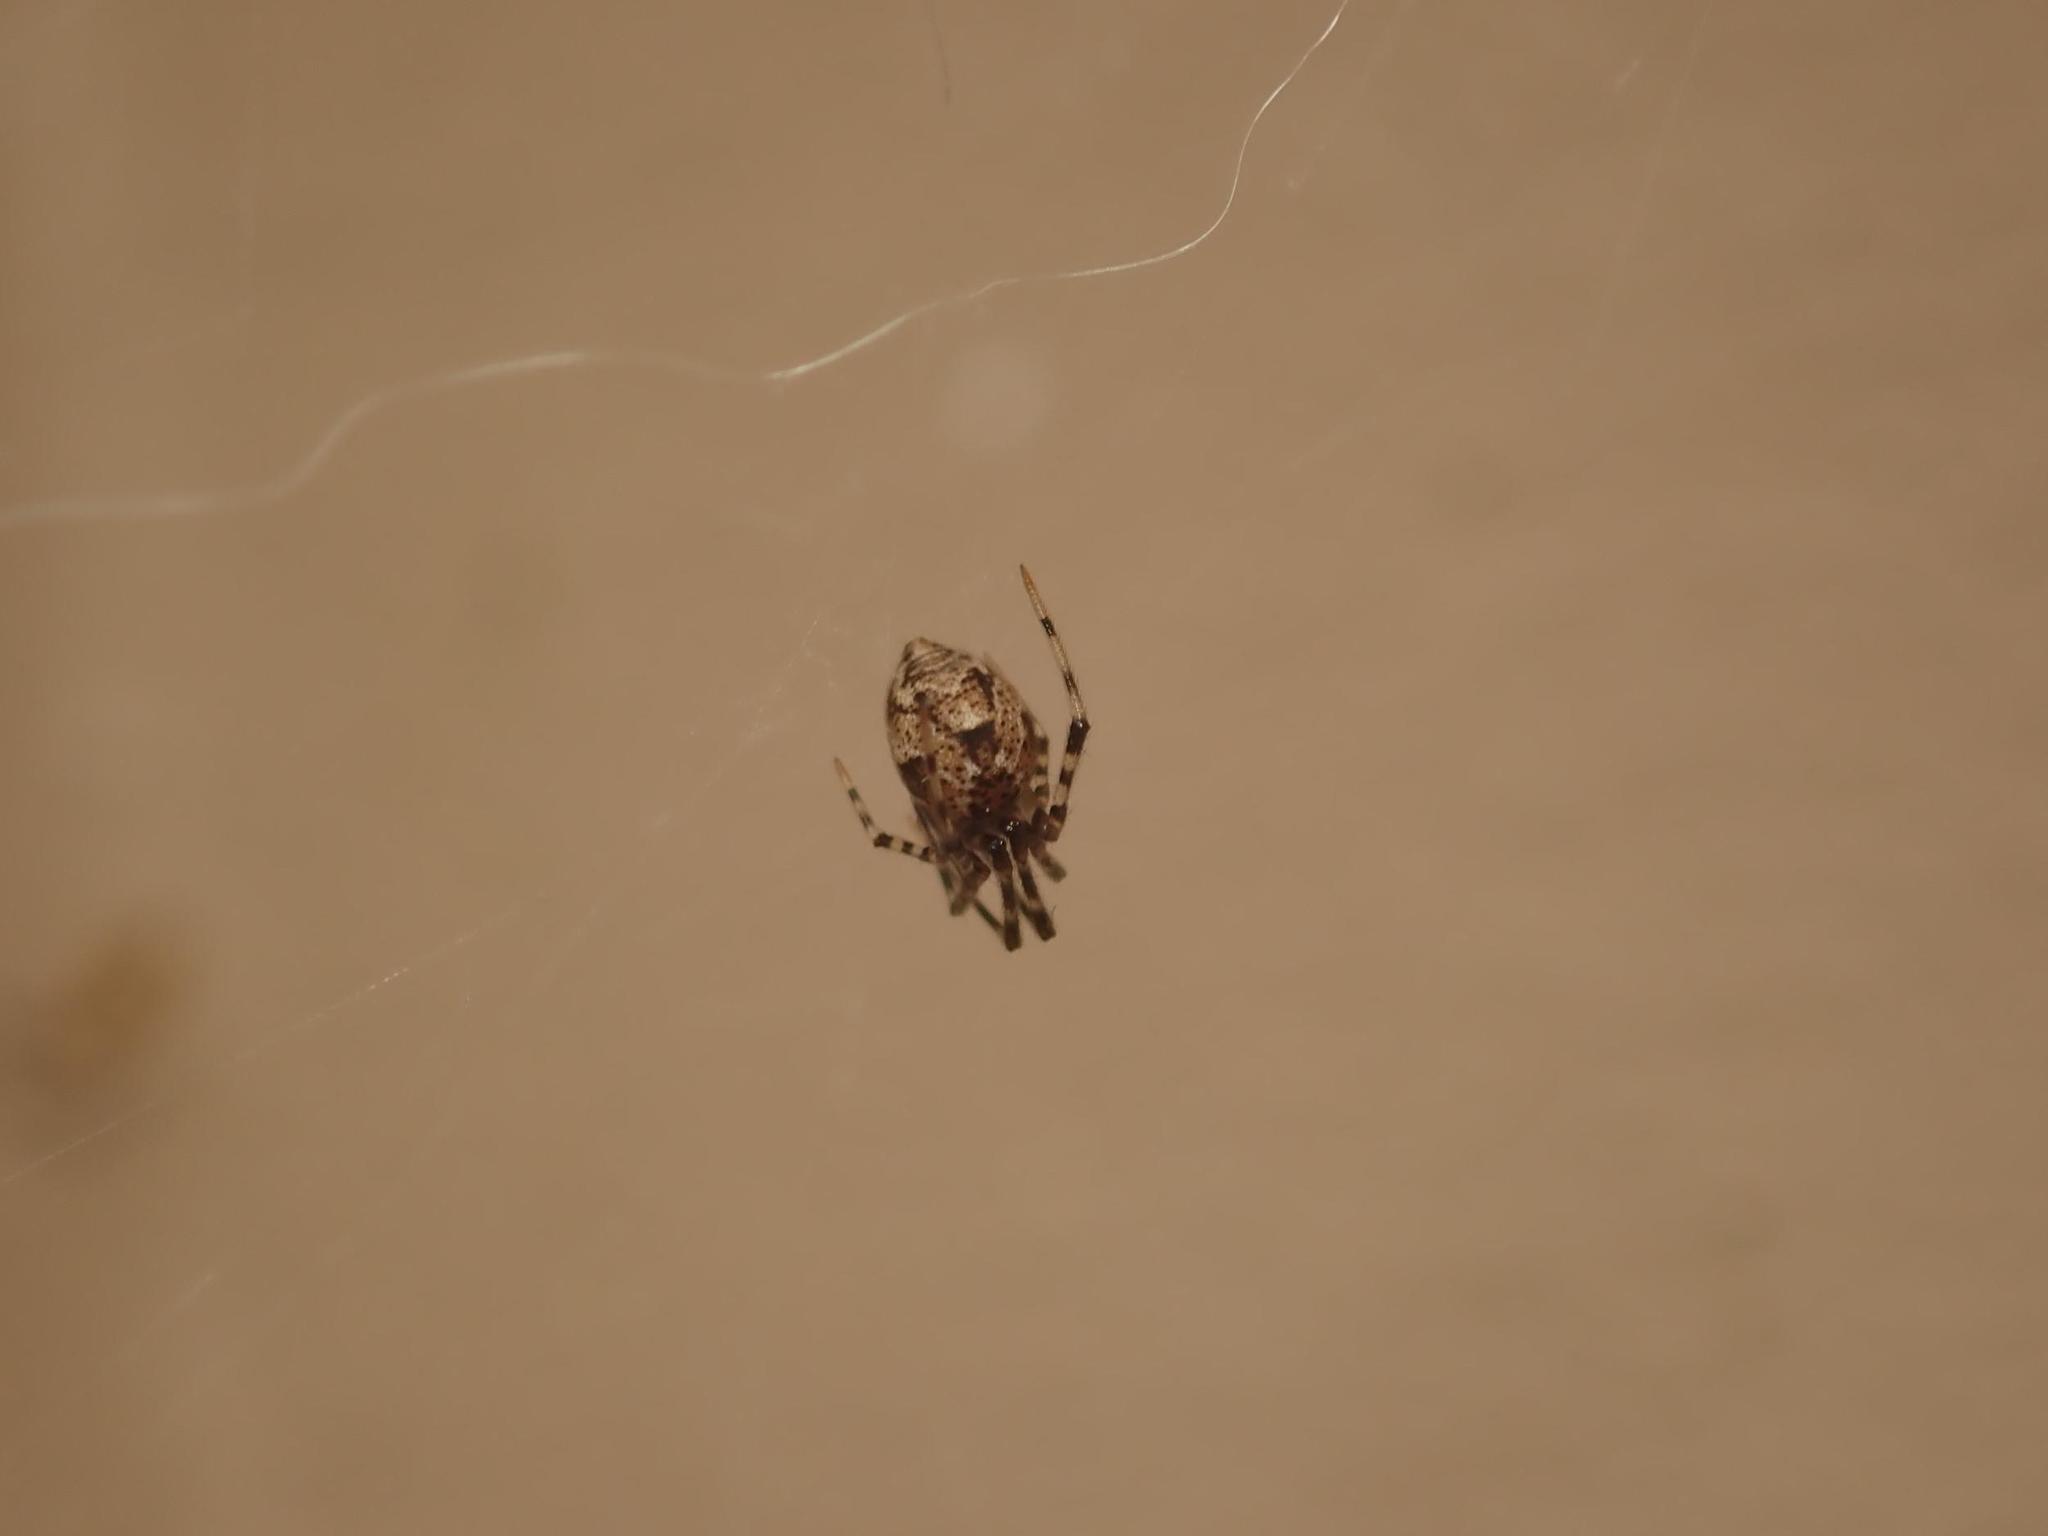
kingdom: Animalia
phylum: Arthropoda
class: Arachnida
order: Araneae
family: Theridiidae
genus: Parasteatoda
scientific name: Parasteatoda tepidariorum
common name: Common house spider
